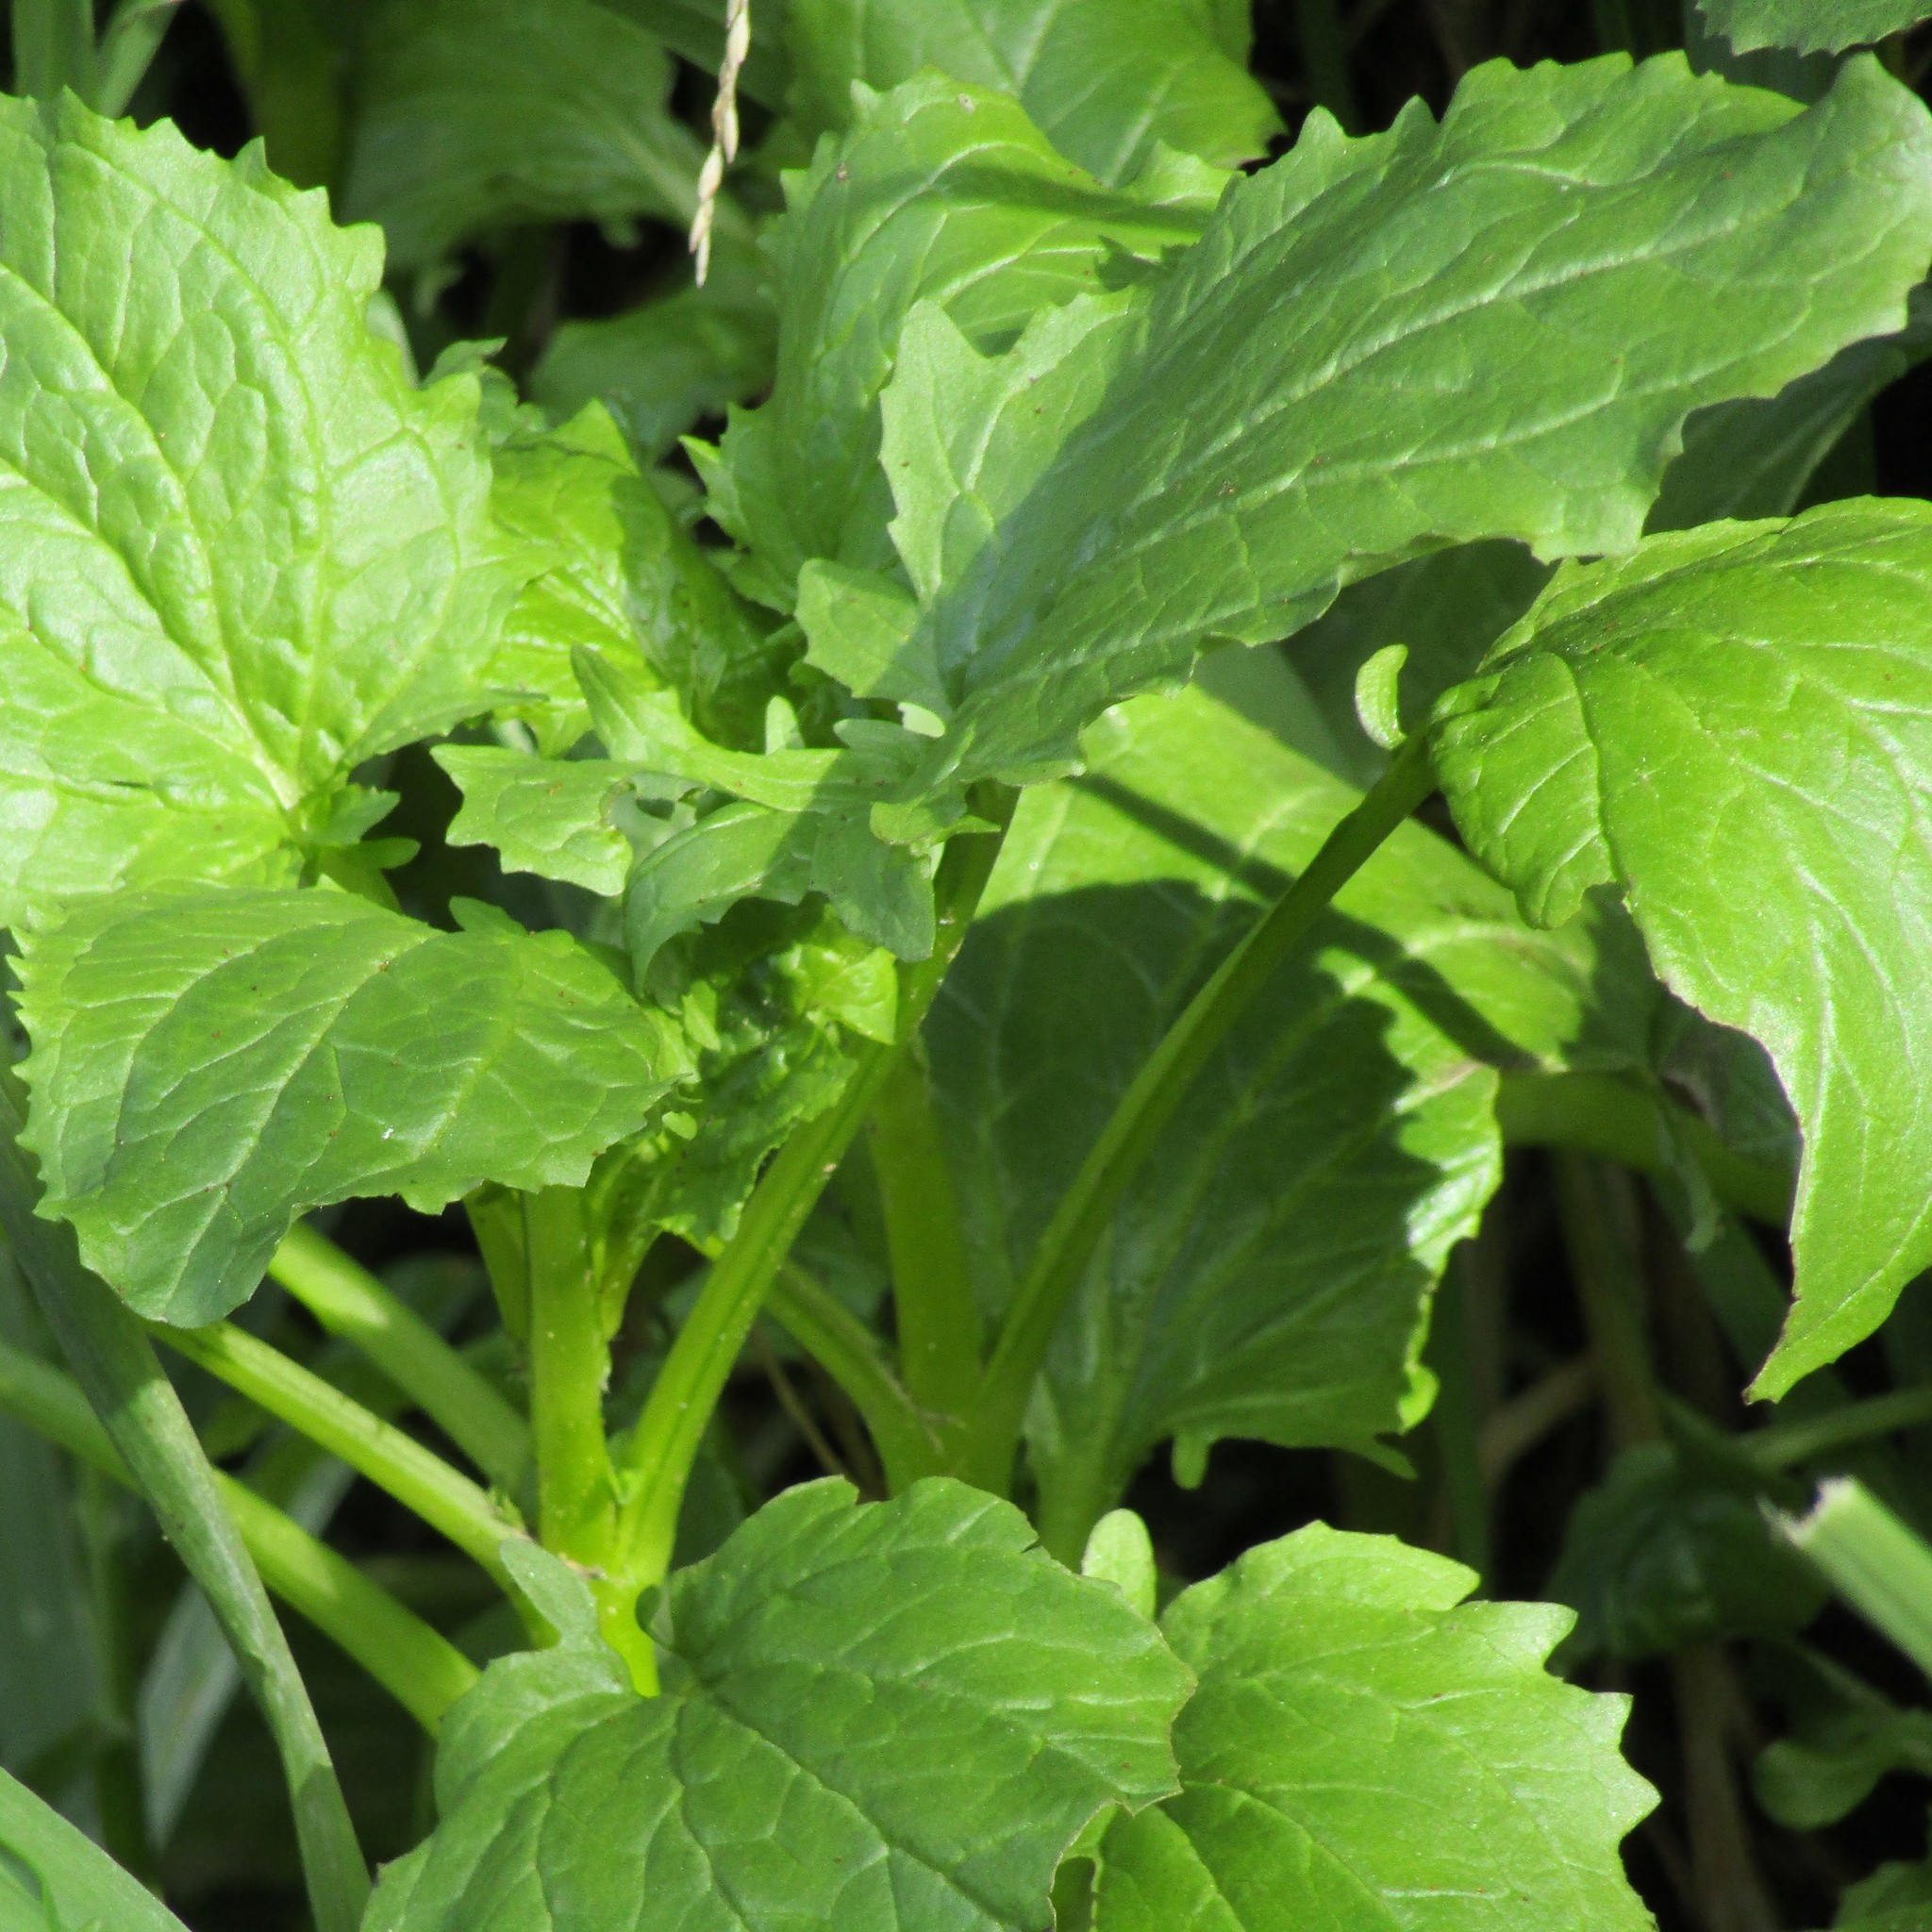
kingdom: Plantae
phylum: Tracheophyta
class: Magnoliopsida
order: Lamiales
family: Phrymaceae
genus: Erythranthe
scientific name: Erythranthe guttata
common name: Monkeyflower
